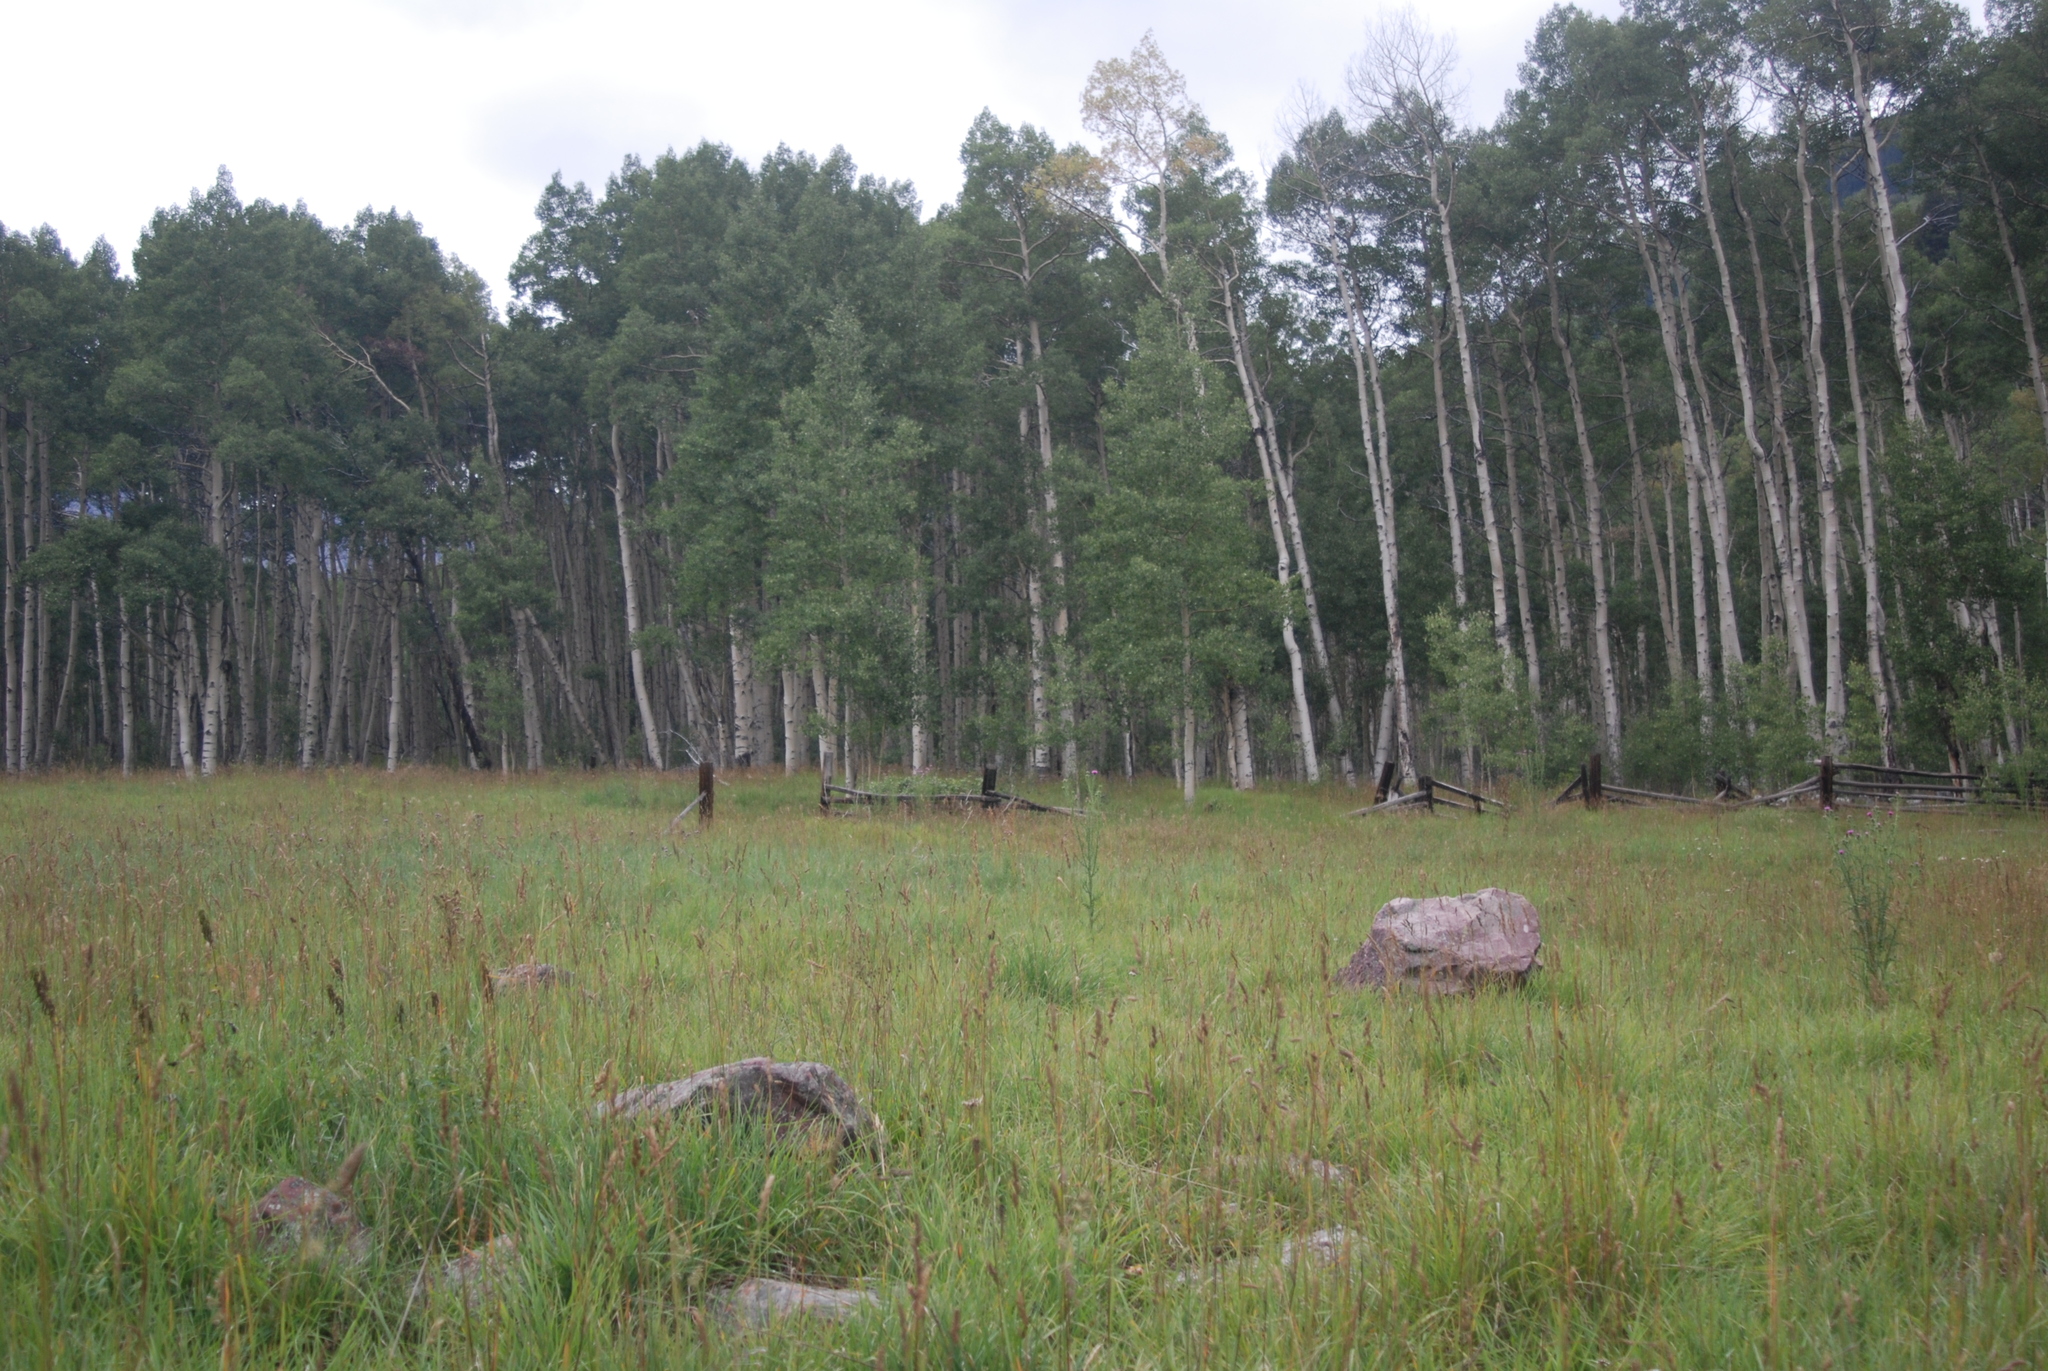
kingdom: Plantae
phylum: Tracheophyta
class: Magnoliopsida
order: Malpighiales
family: Salicaceae
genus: Populus
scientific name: Populus tremuloides
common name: Quaking aspen
